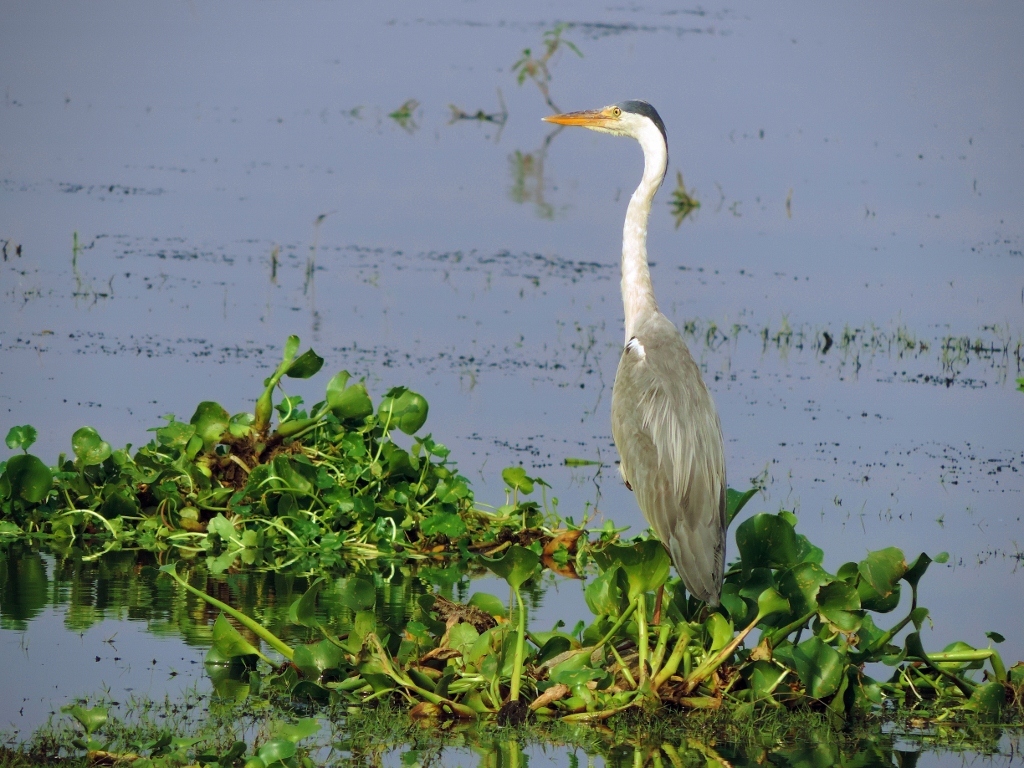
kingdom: Animalia
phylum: Chordata
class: Aves
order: Pelecaniformes
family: Ardeidae
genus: Ardea
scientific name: Ardea cinerea
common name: Grey heron
